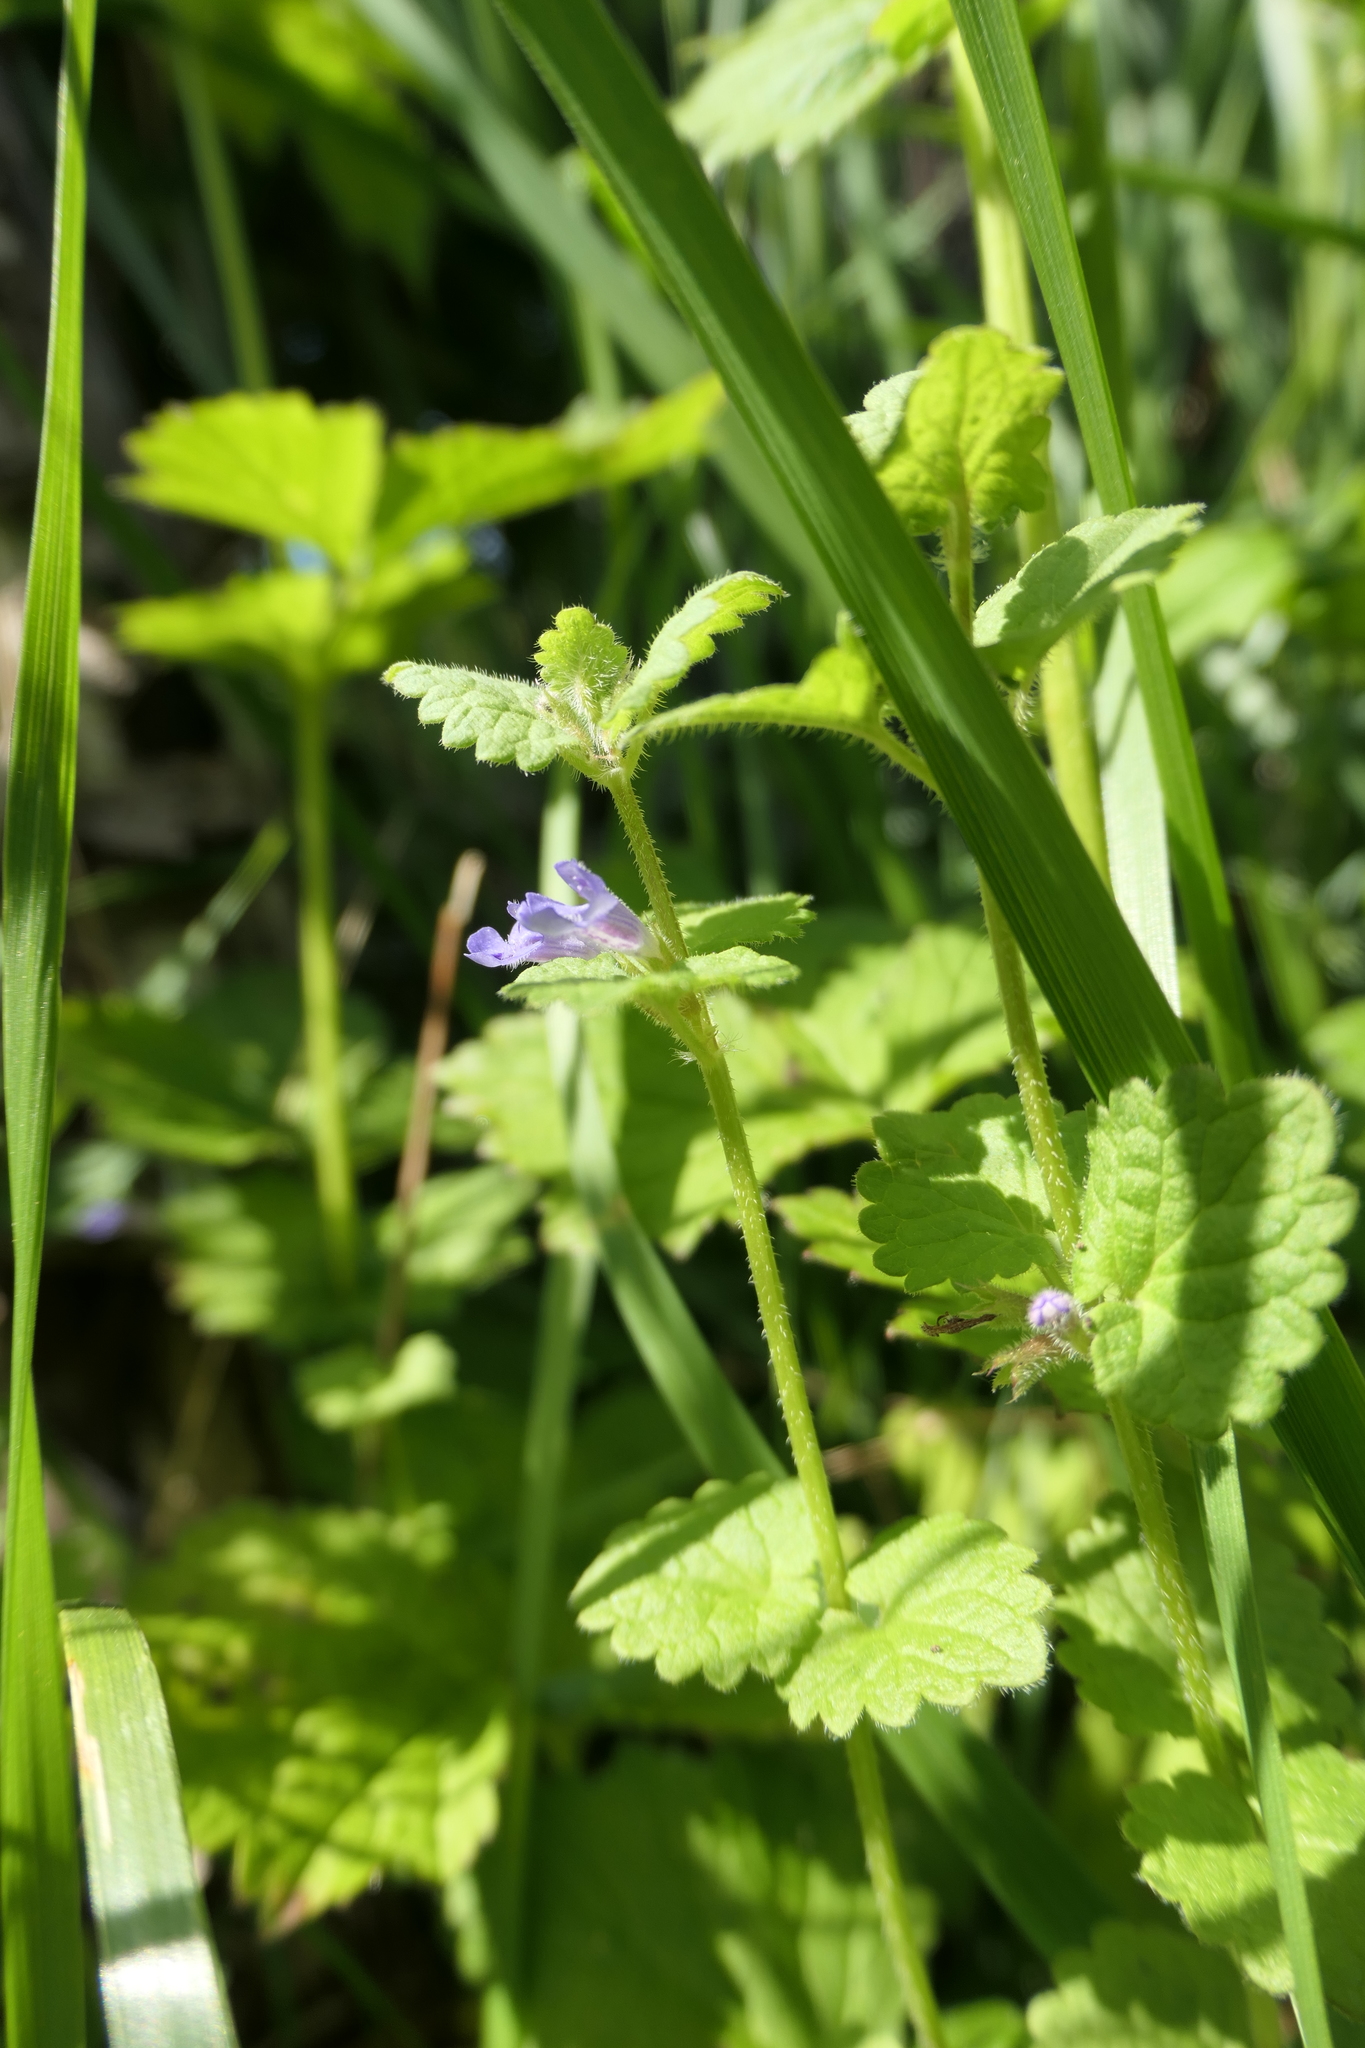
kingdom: Plantae
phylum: Tracheophyta
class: Magnoliopsida
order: Lamiales
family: Lamiaceae
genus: Glechoma
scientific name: Glechoma hederacea
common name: Ground ivy
